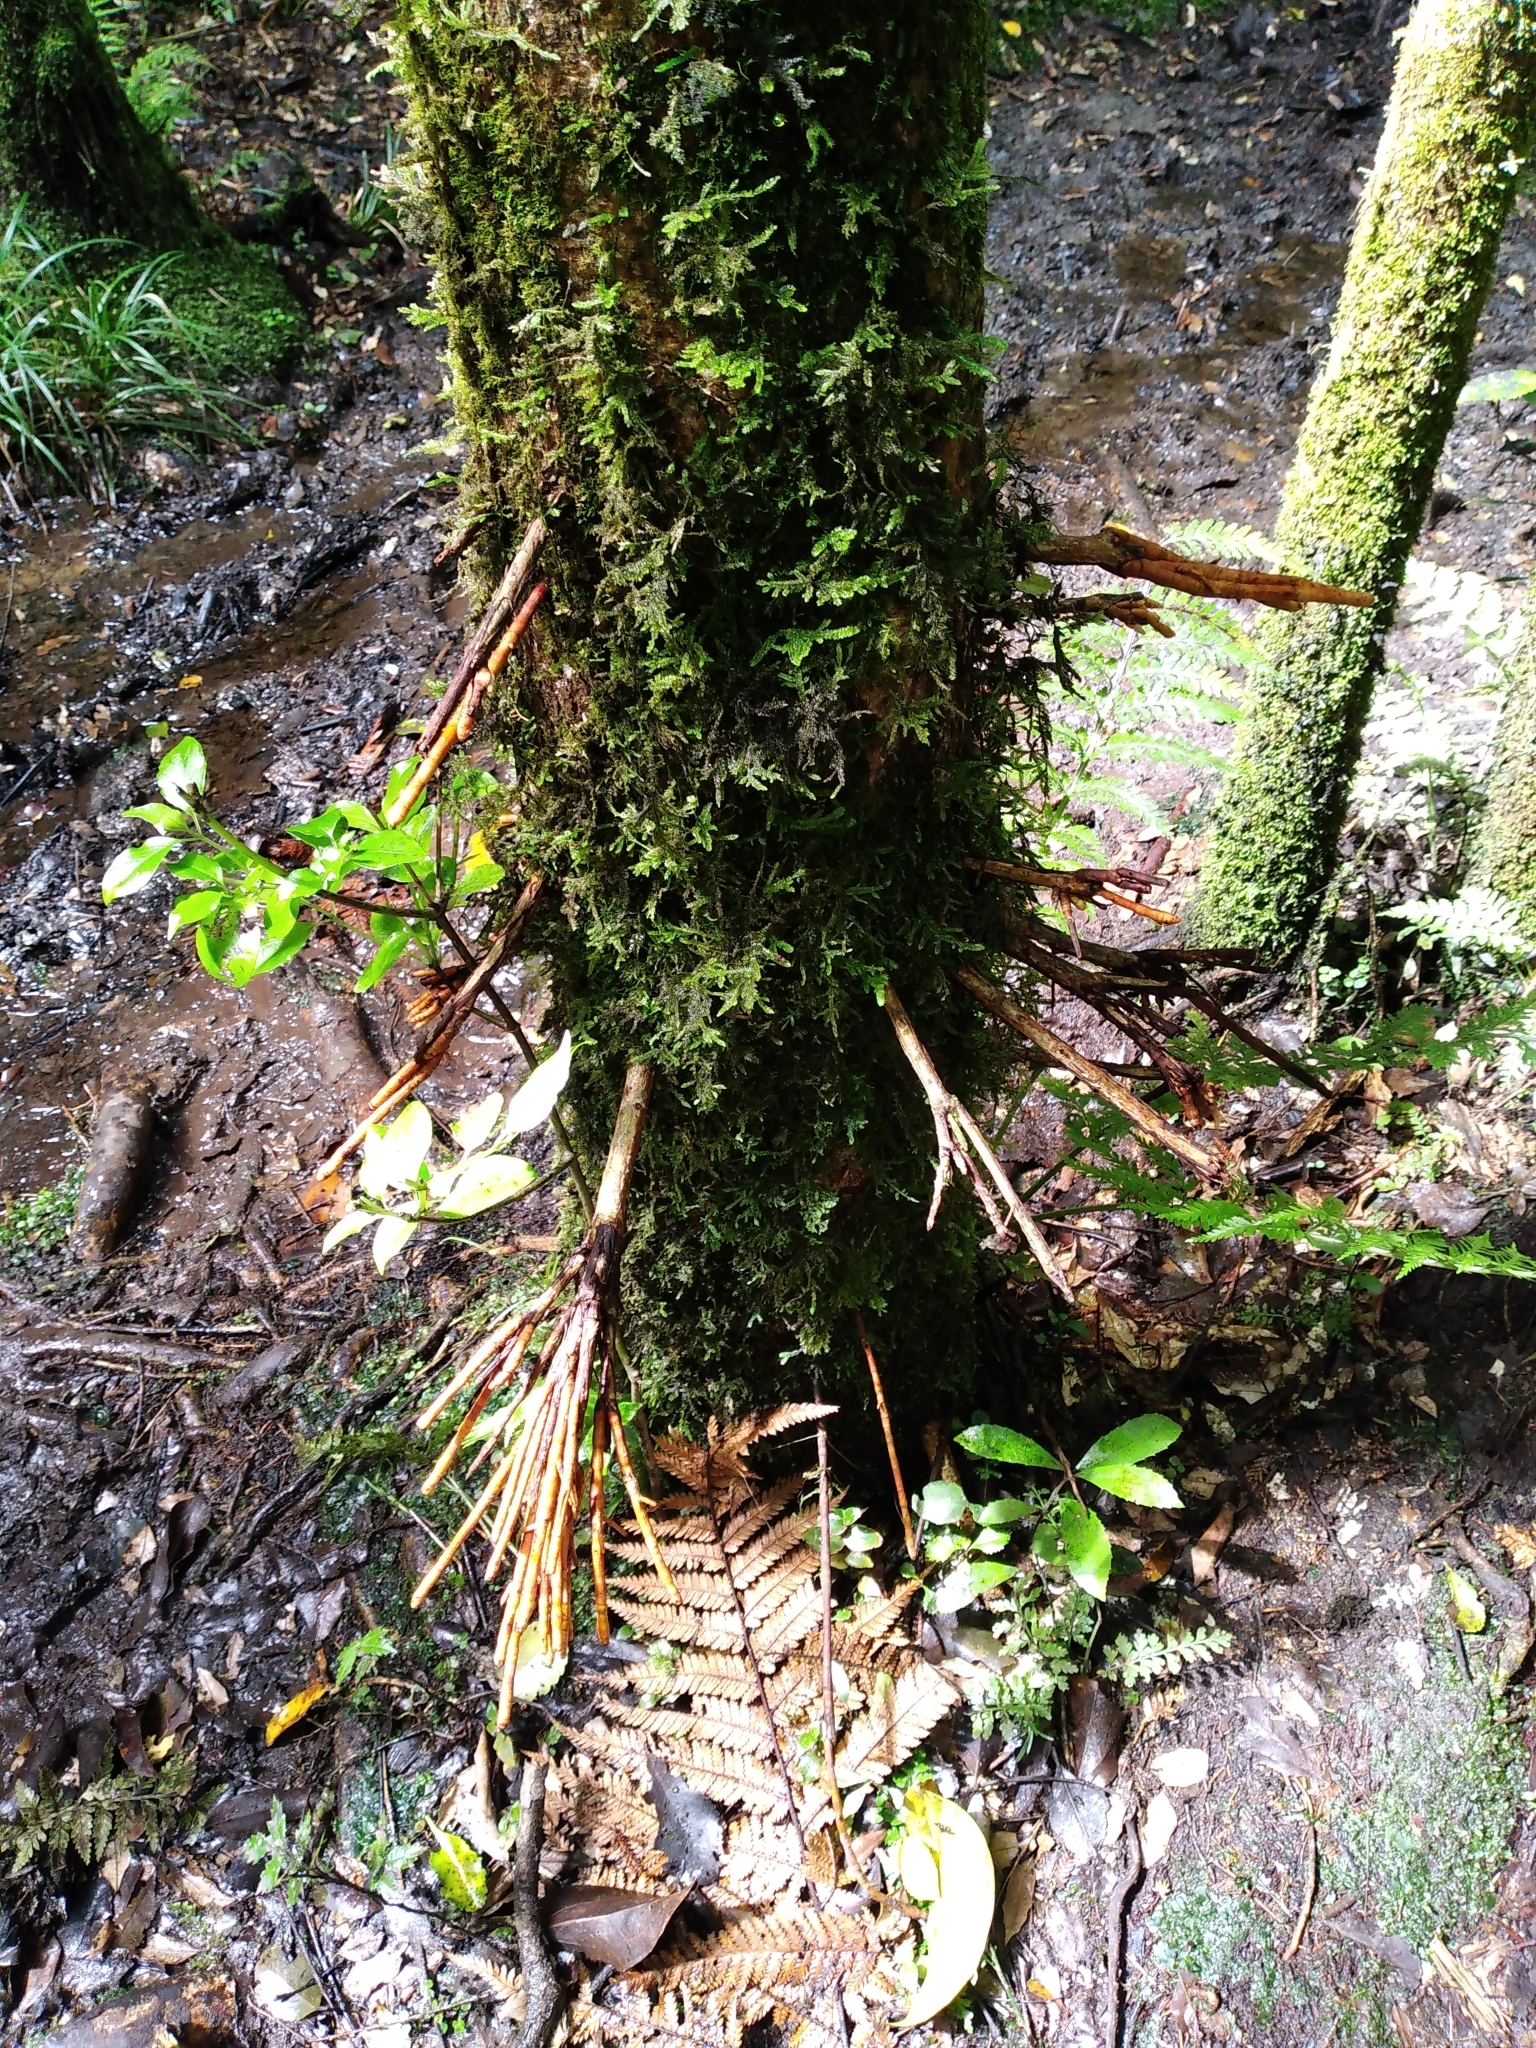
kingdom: Plantae
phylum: Tracheophyta
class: Magnoliopsida
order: Myrtales
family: Myrtaceae
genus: Syzygium
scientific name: Syzygium maire
